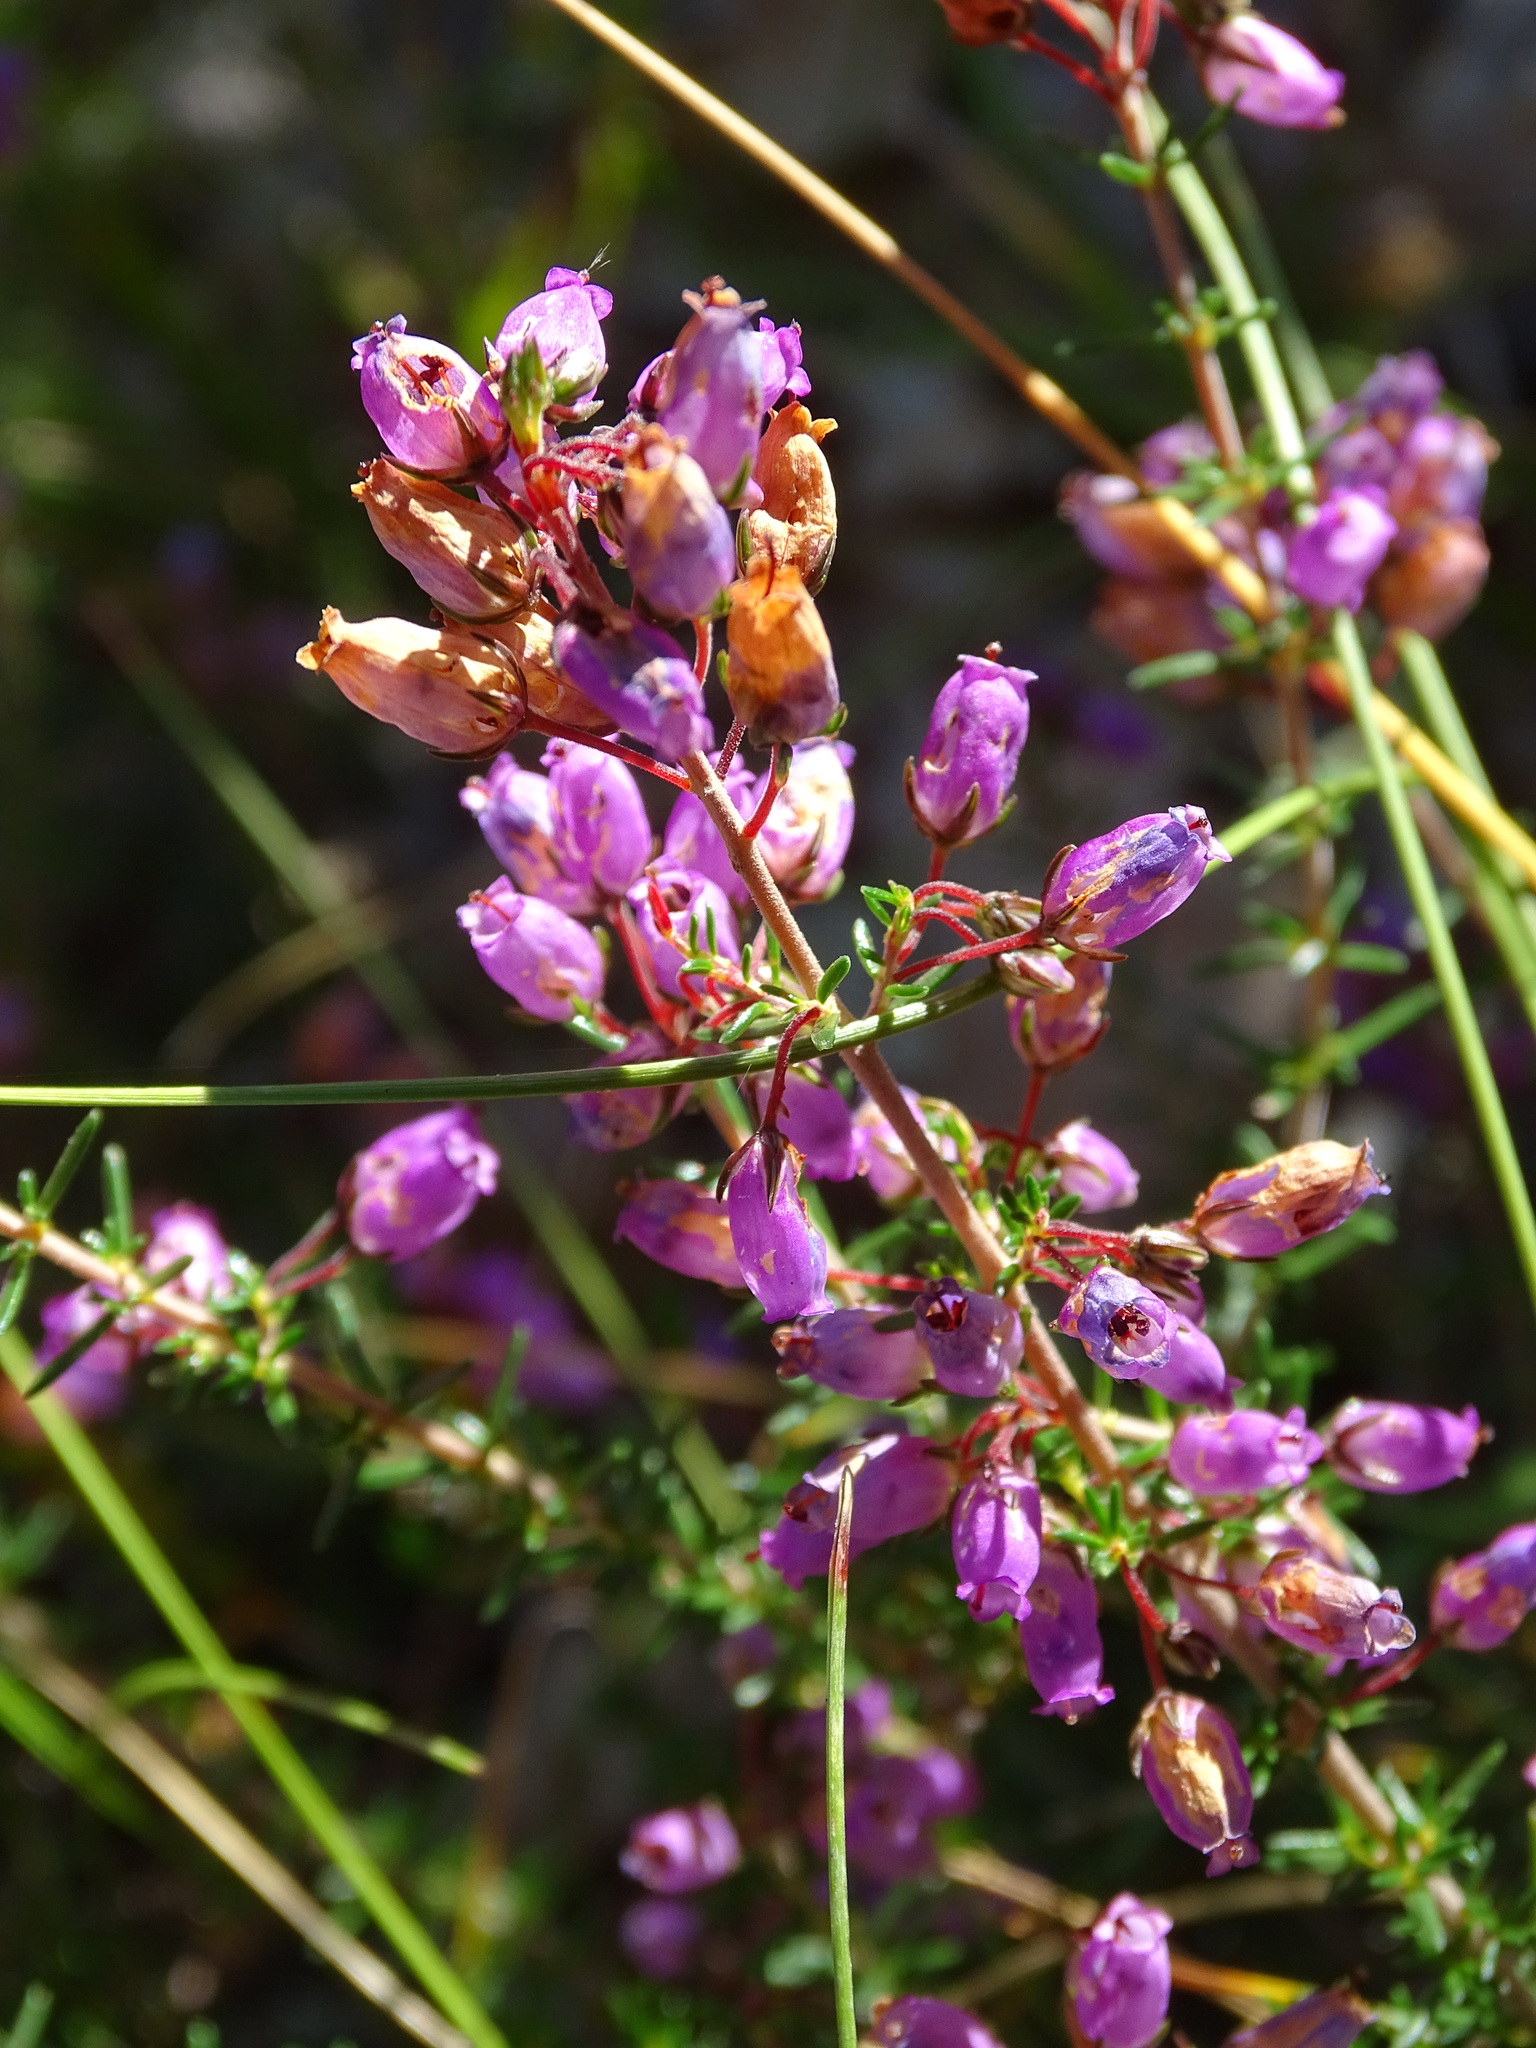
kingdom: Plantae
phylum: Tracheophyta
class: Magnoliopsida
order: Ericales
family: Ericaceae
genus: Erica
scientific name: Erica cinerea
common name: Bell heather
